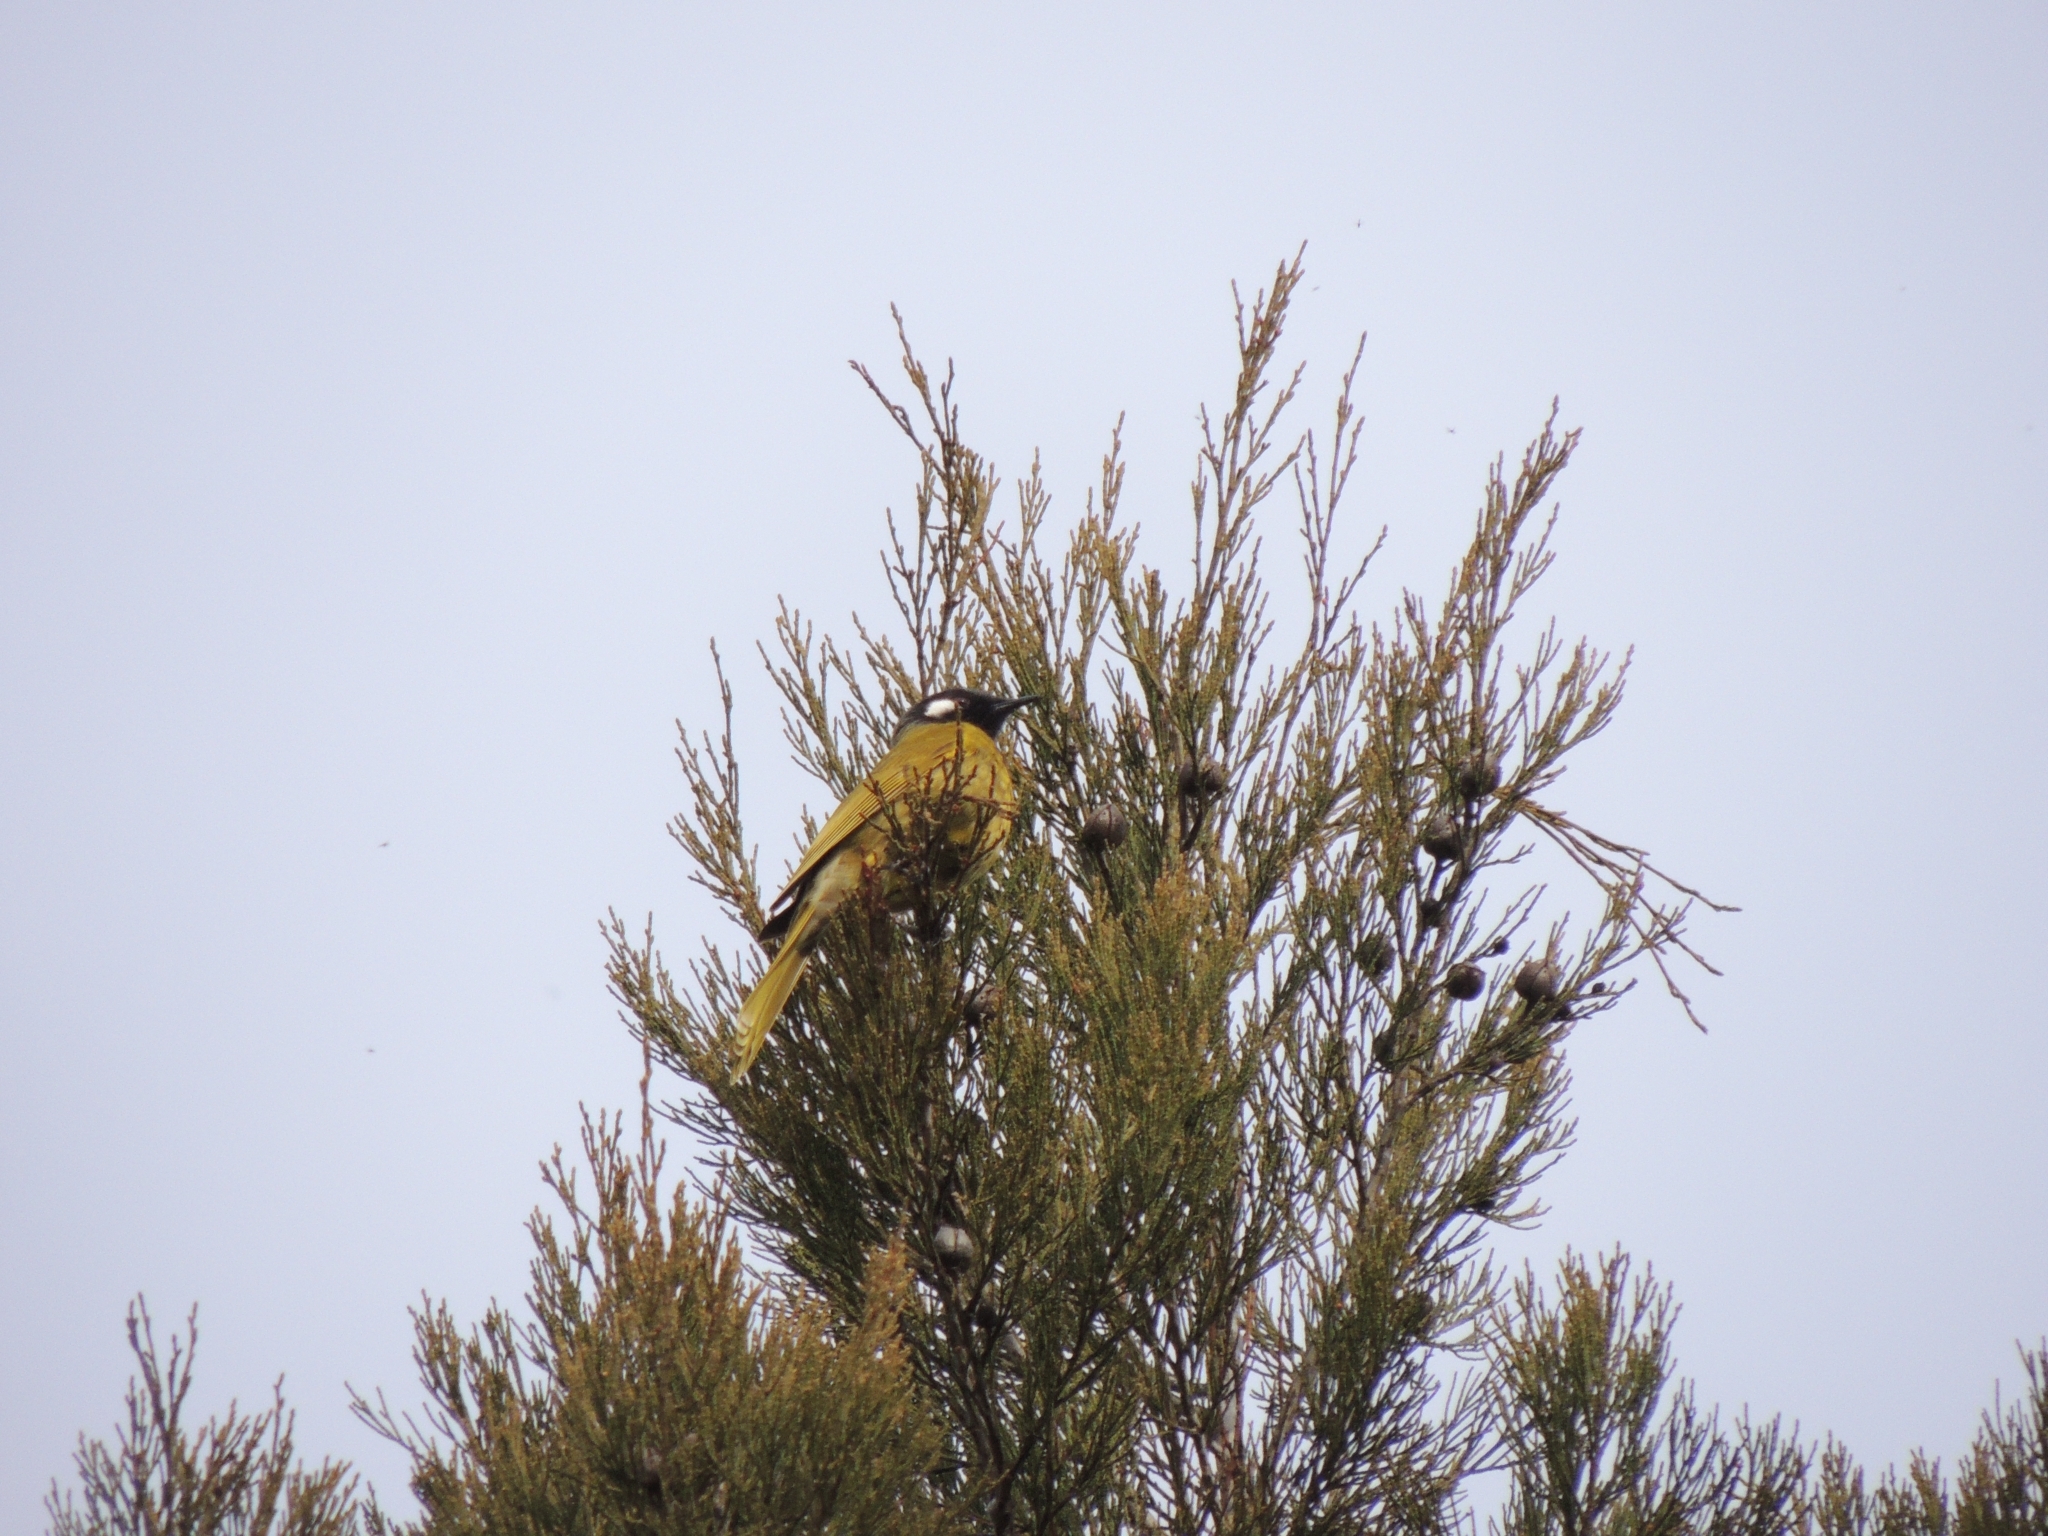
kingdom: Animalia
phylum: Chordata
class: Aves
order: Passeriformes
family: Meliphagidae
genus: Nesoptilotis
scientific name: Nesoptilotis leucotis
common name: White-eared honeyeater
